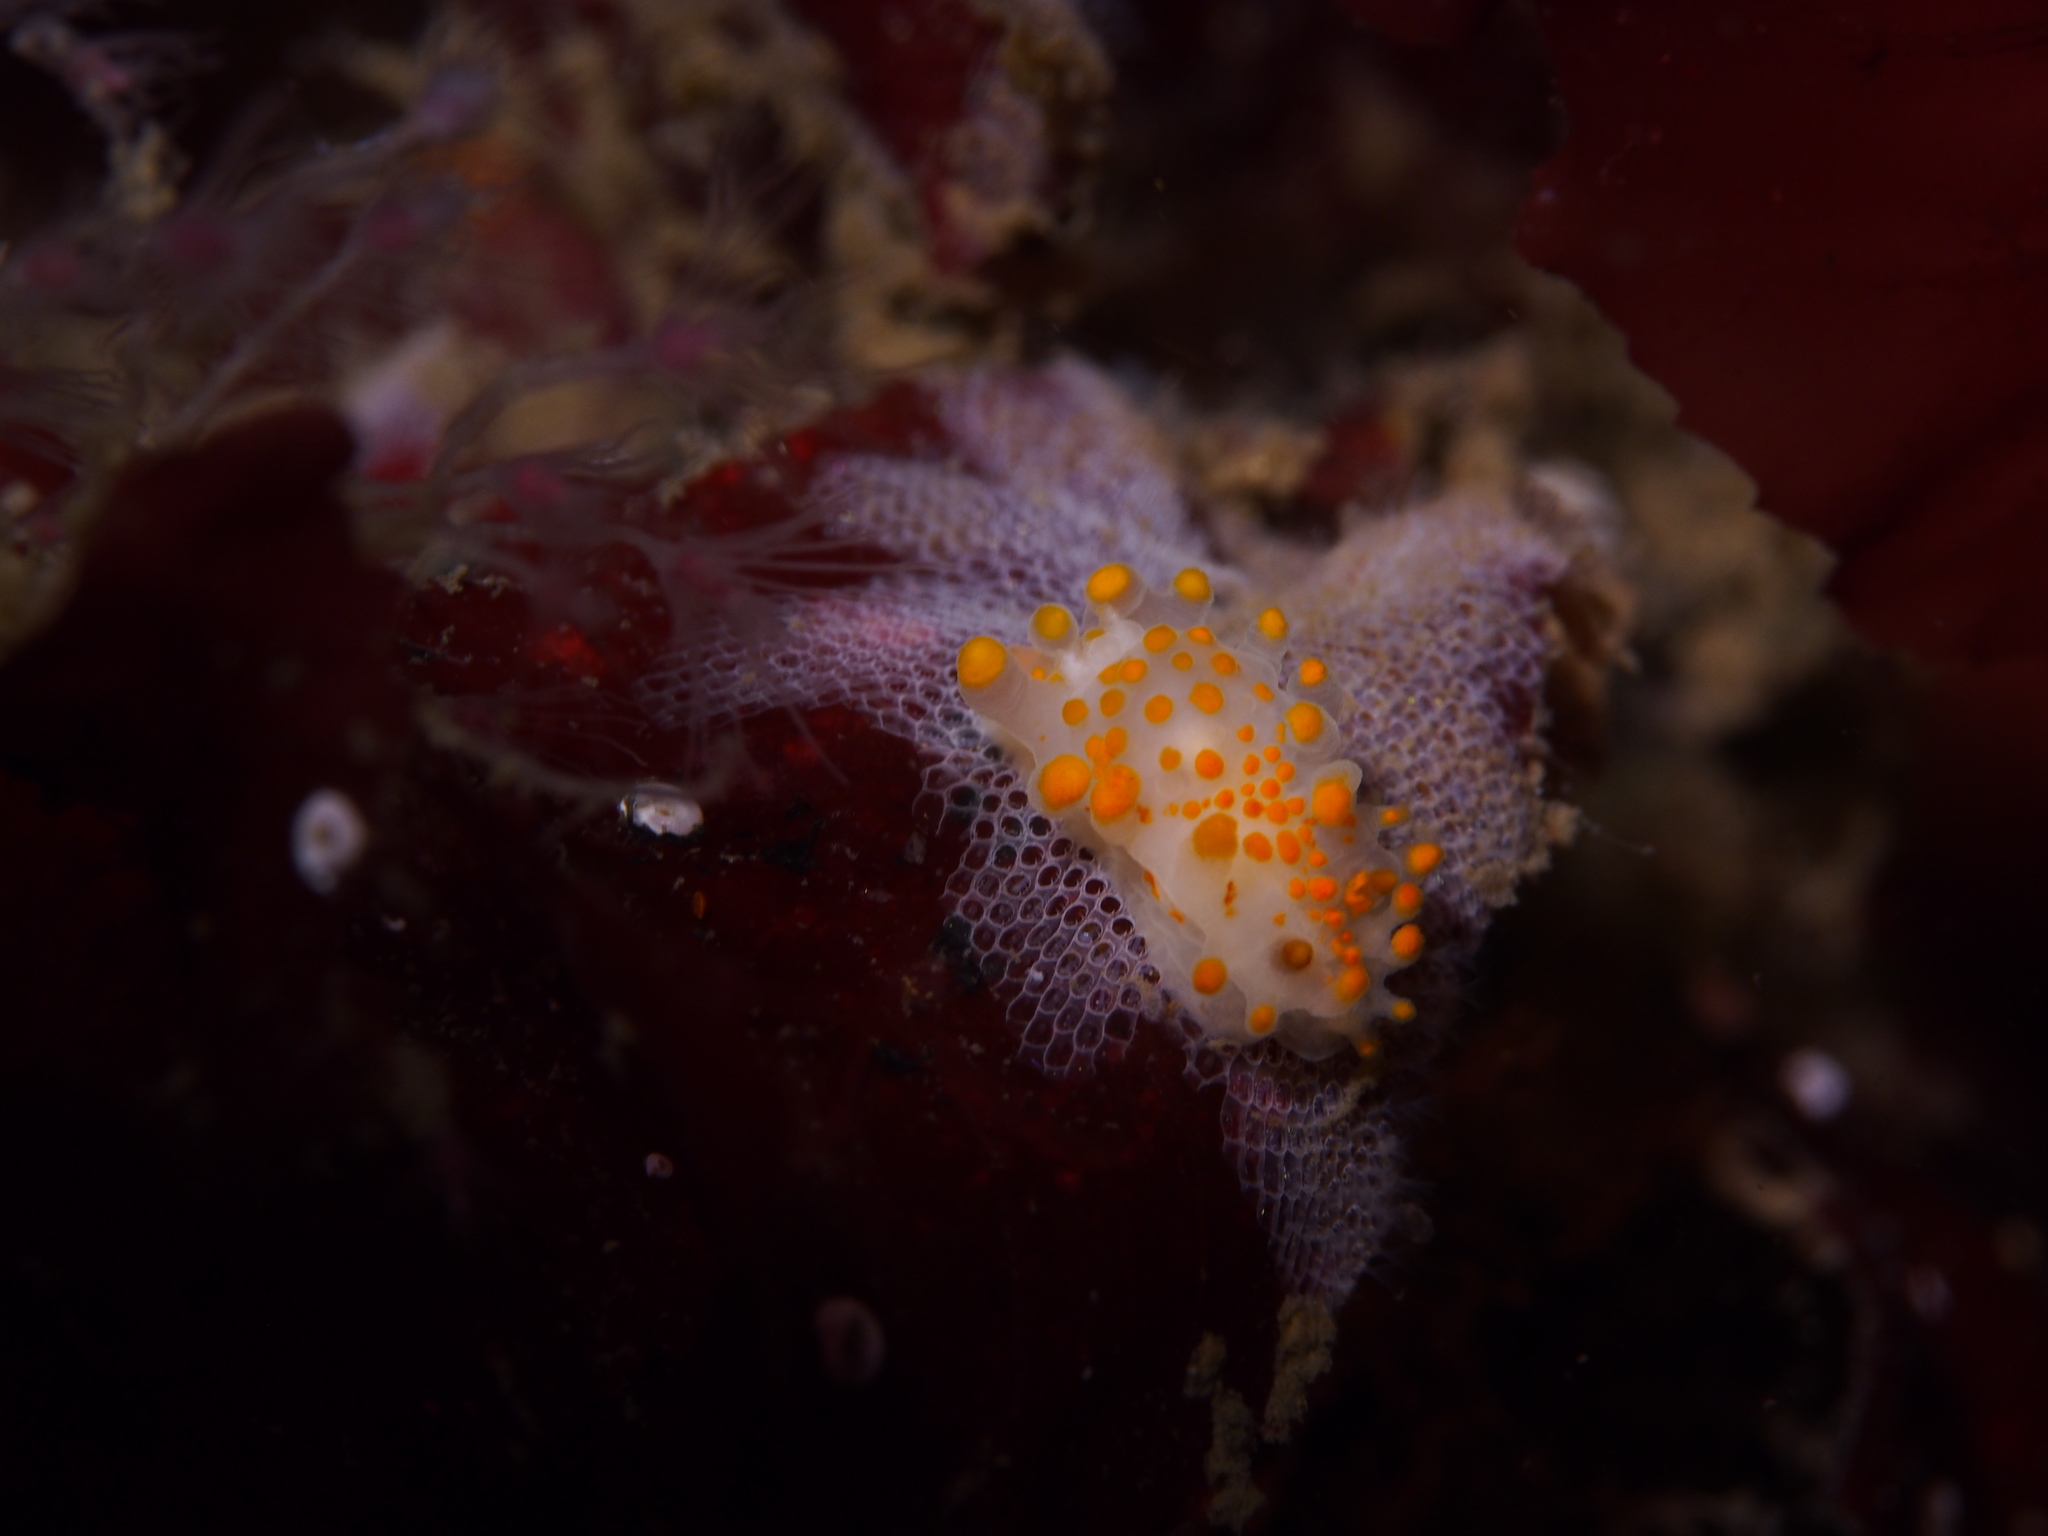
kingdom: Animalia
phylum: Mollusca
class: Gastropoda
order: Nudibranchia
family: Polyceridae
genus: Limacia
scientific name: Limacia clavigera
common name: Orange-clubbed sea slug
